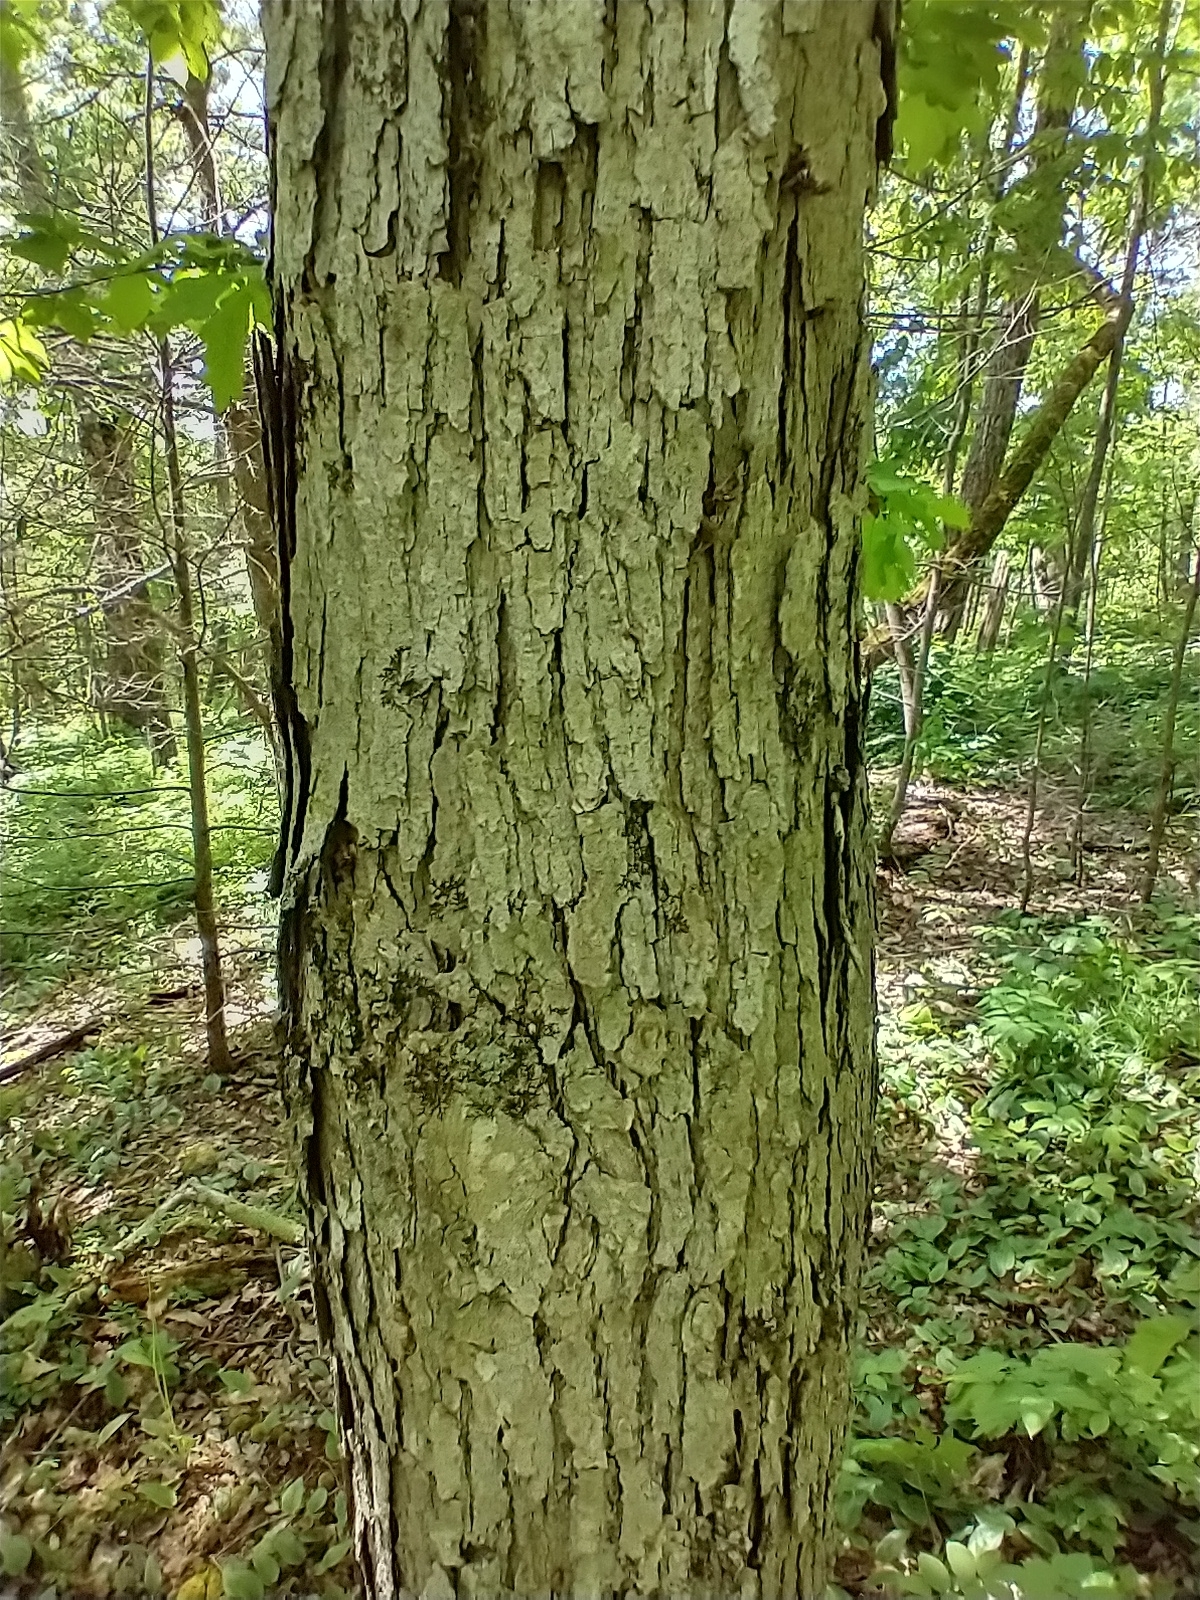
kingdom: Plantae
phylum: Tracheophyta
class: Magnoliopsida
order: Fagales
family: Fagaceae
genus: Quercus
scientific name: Quercus alba
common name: White oak
